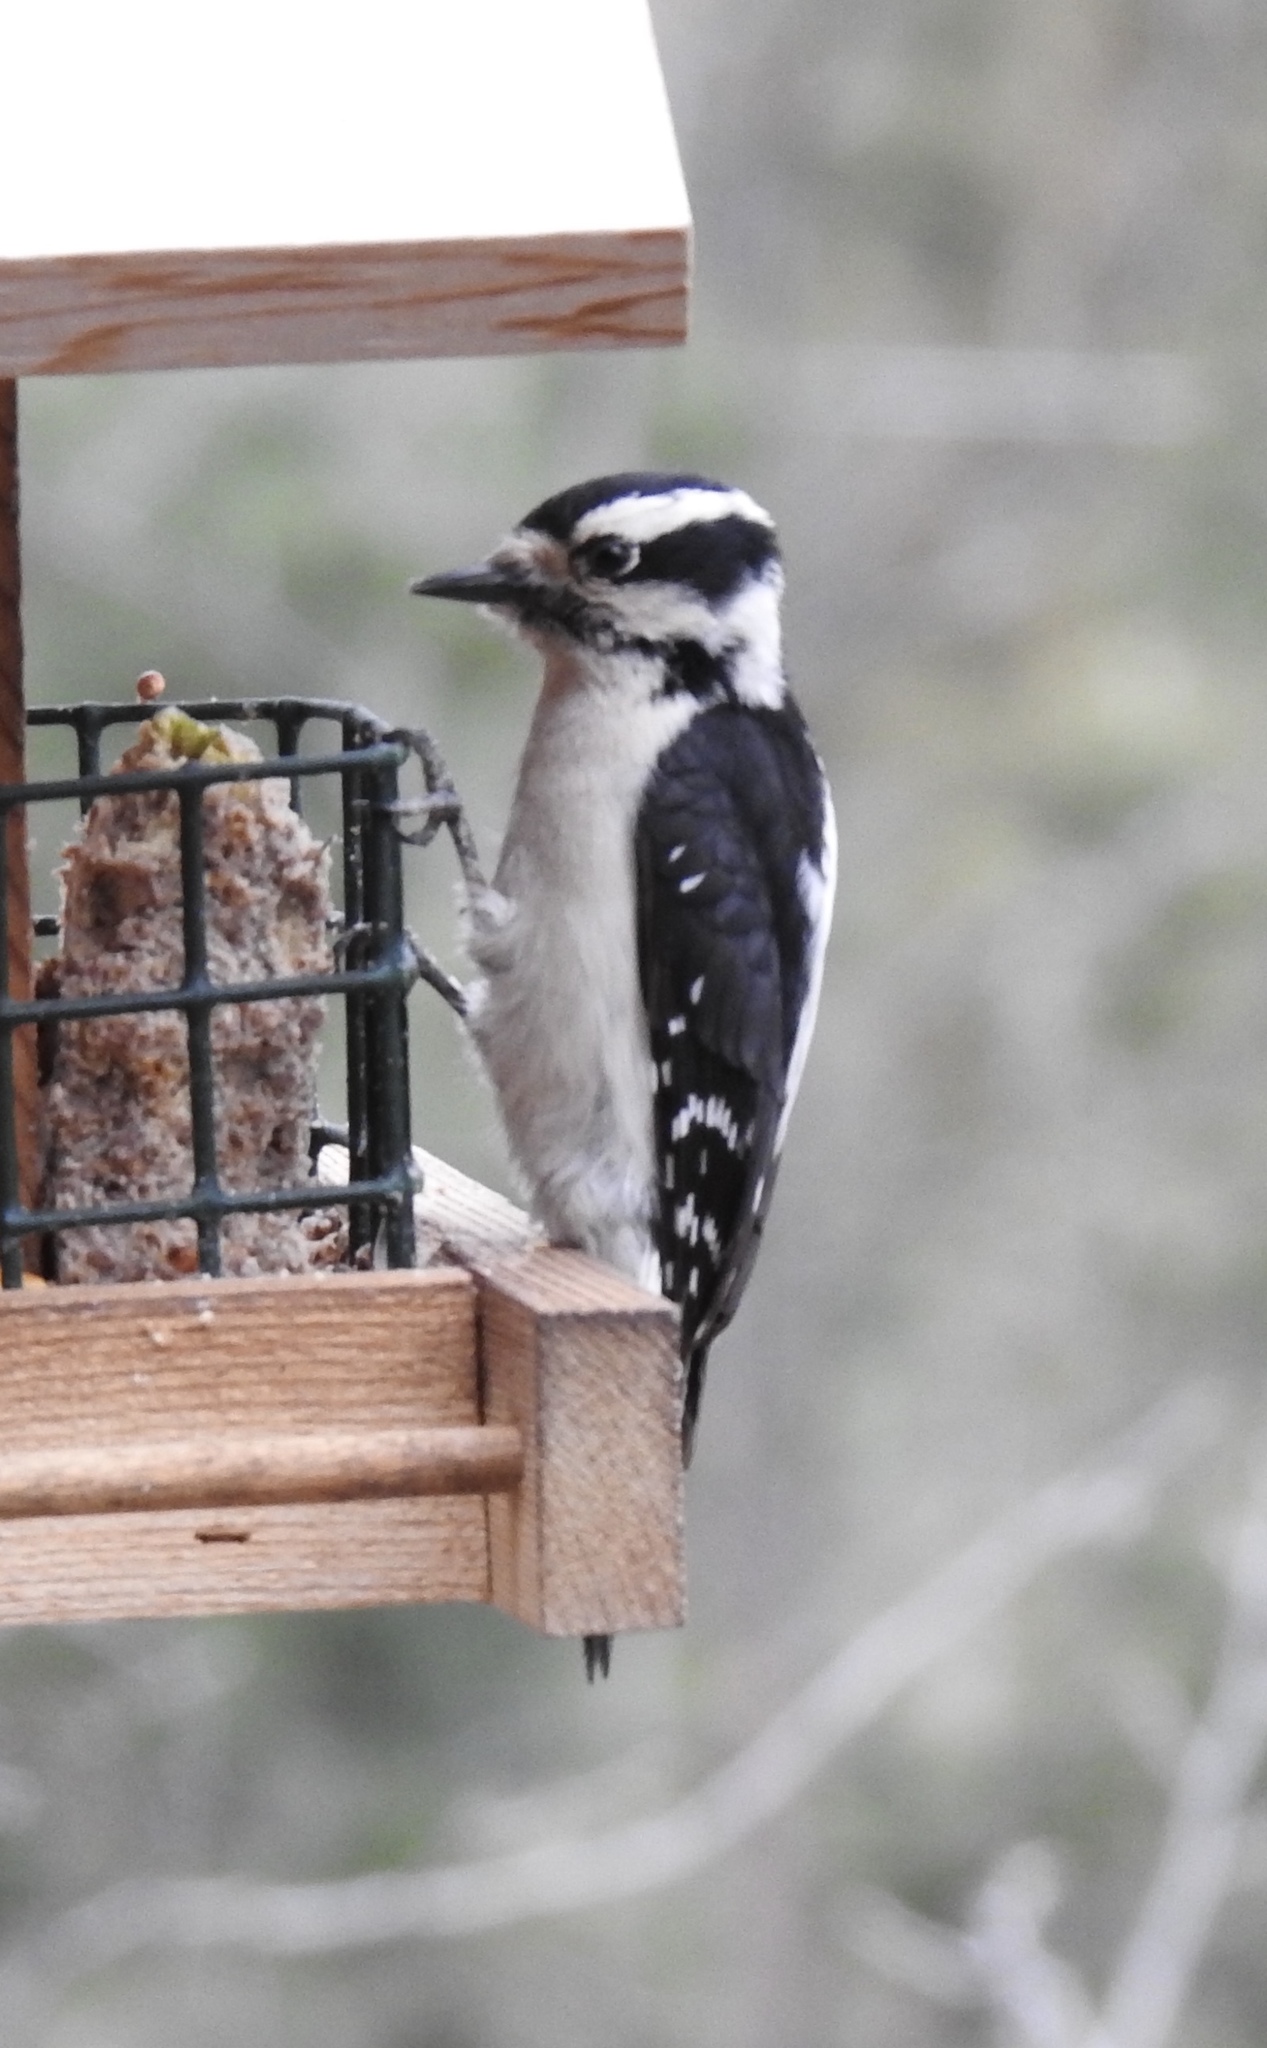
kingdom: Animalia
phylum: Chordata
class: Aves
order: Piciformes
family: Picidae
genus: Dryobates
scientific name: Dryobates pubescens
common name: Downy woodpecker
